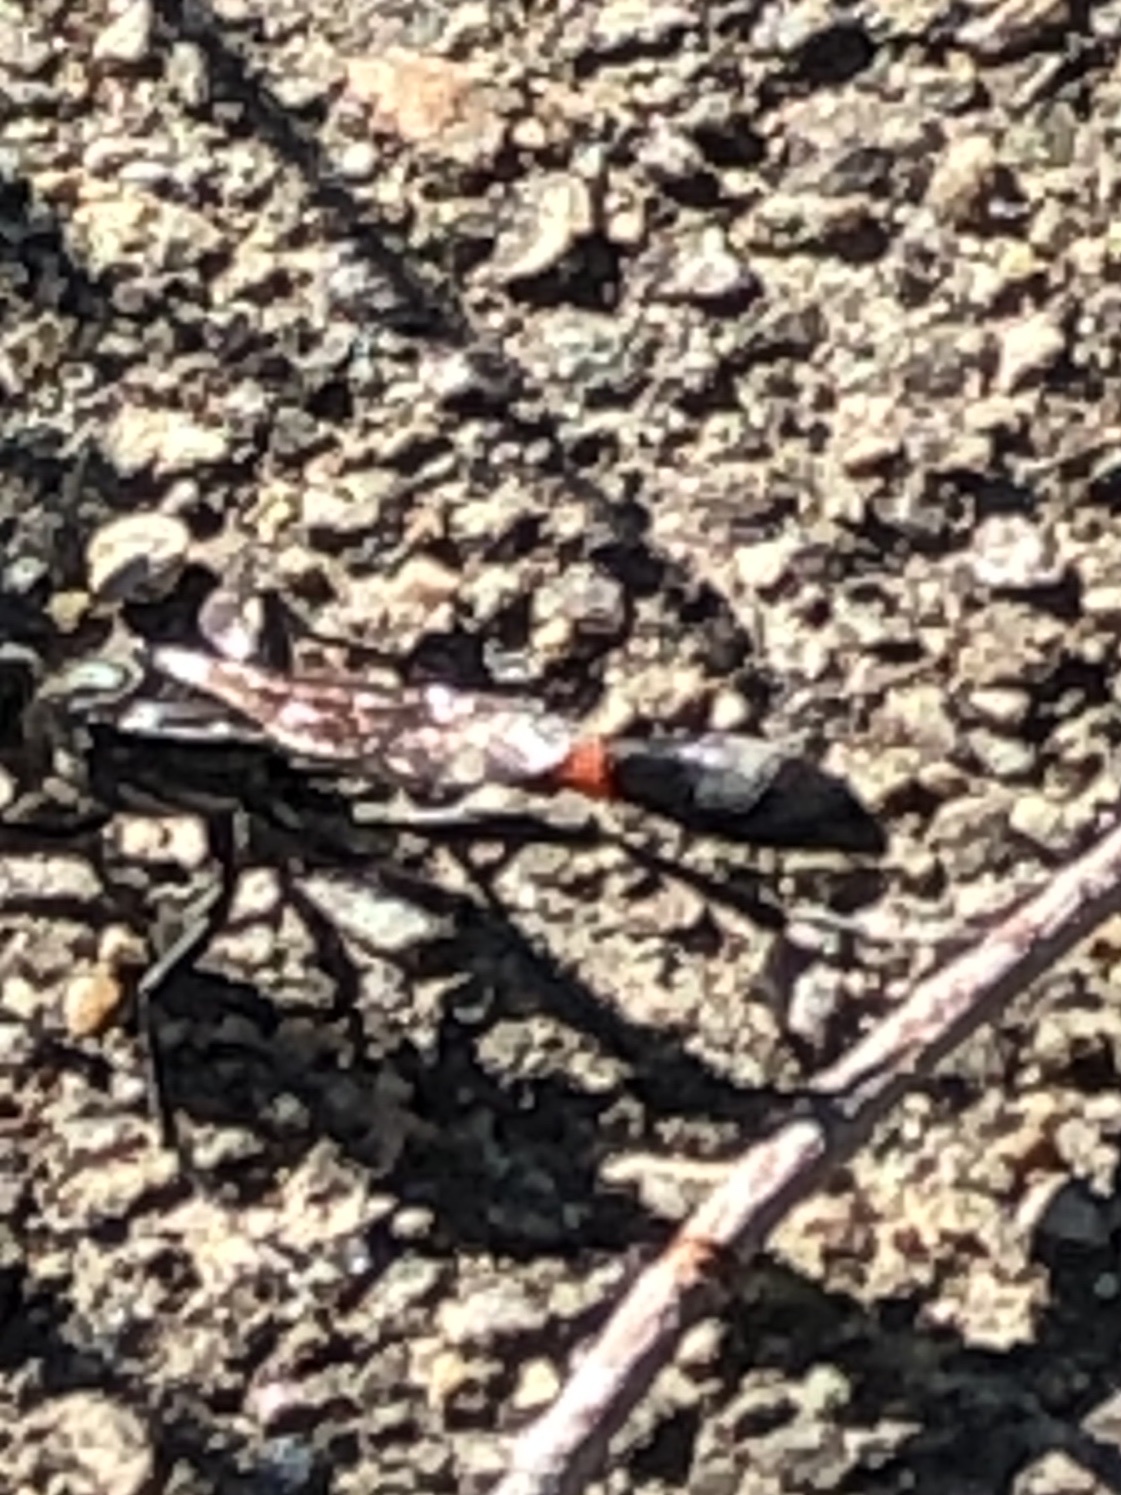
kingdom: Animalia
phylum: Arthropoda
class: Insecta
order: Hymenoptera
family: Sphecidae
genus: Ammophila
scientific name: Ammophila procera
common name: Common thread-waisted wasp
